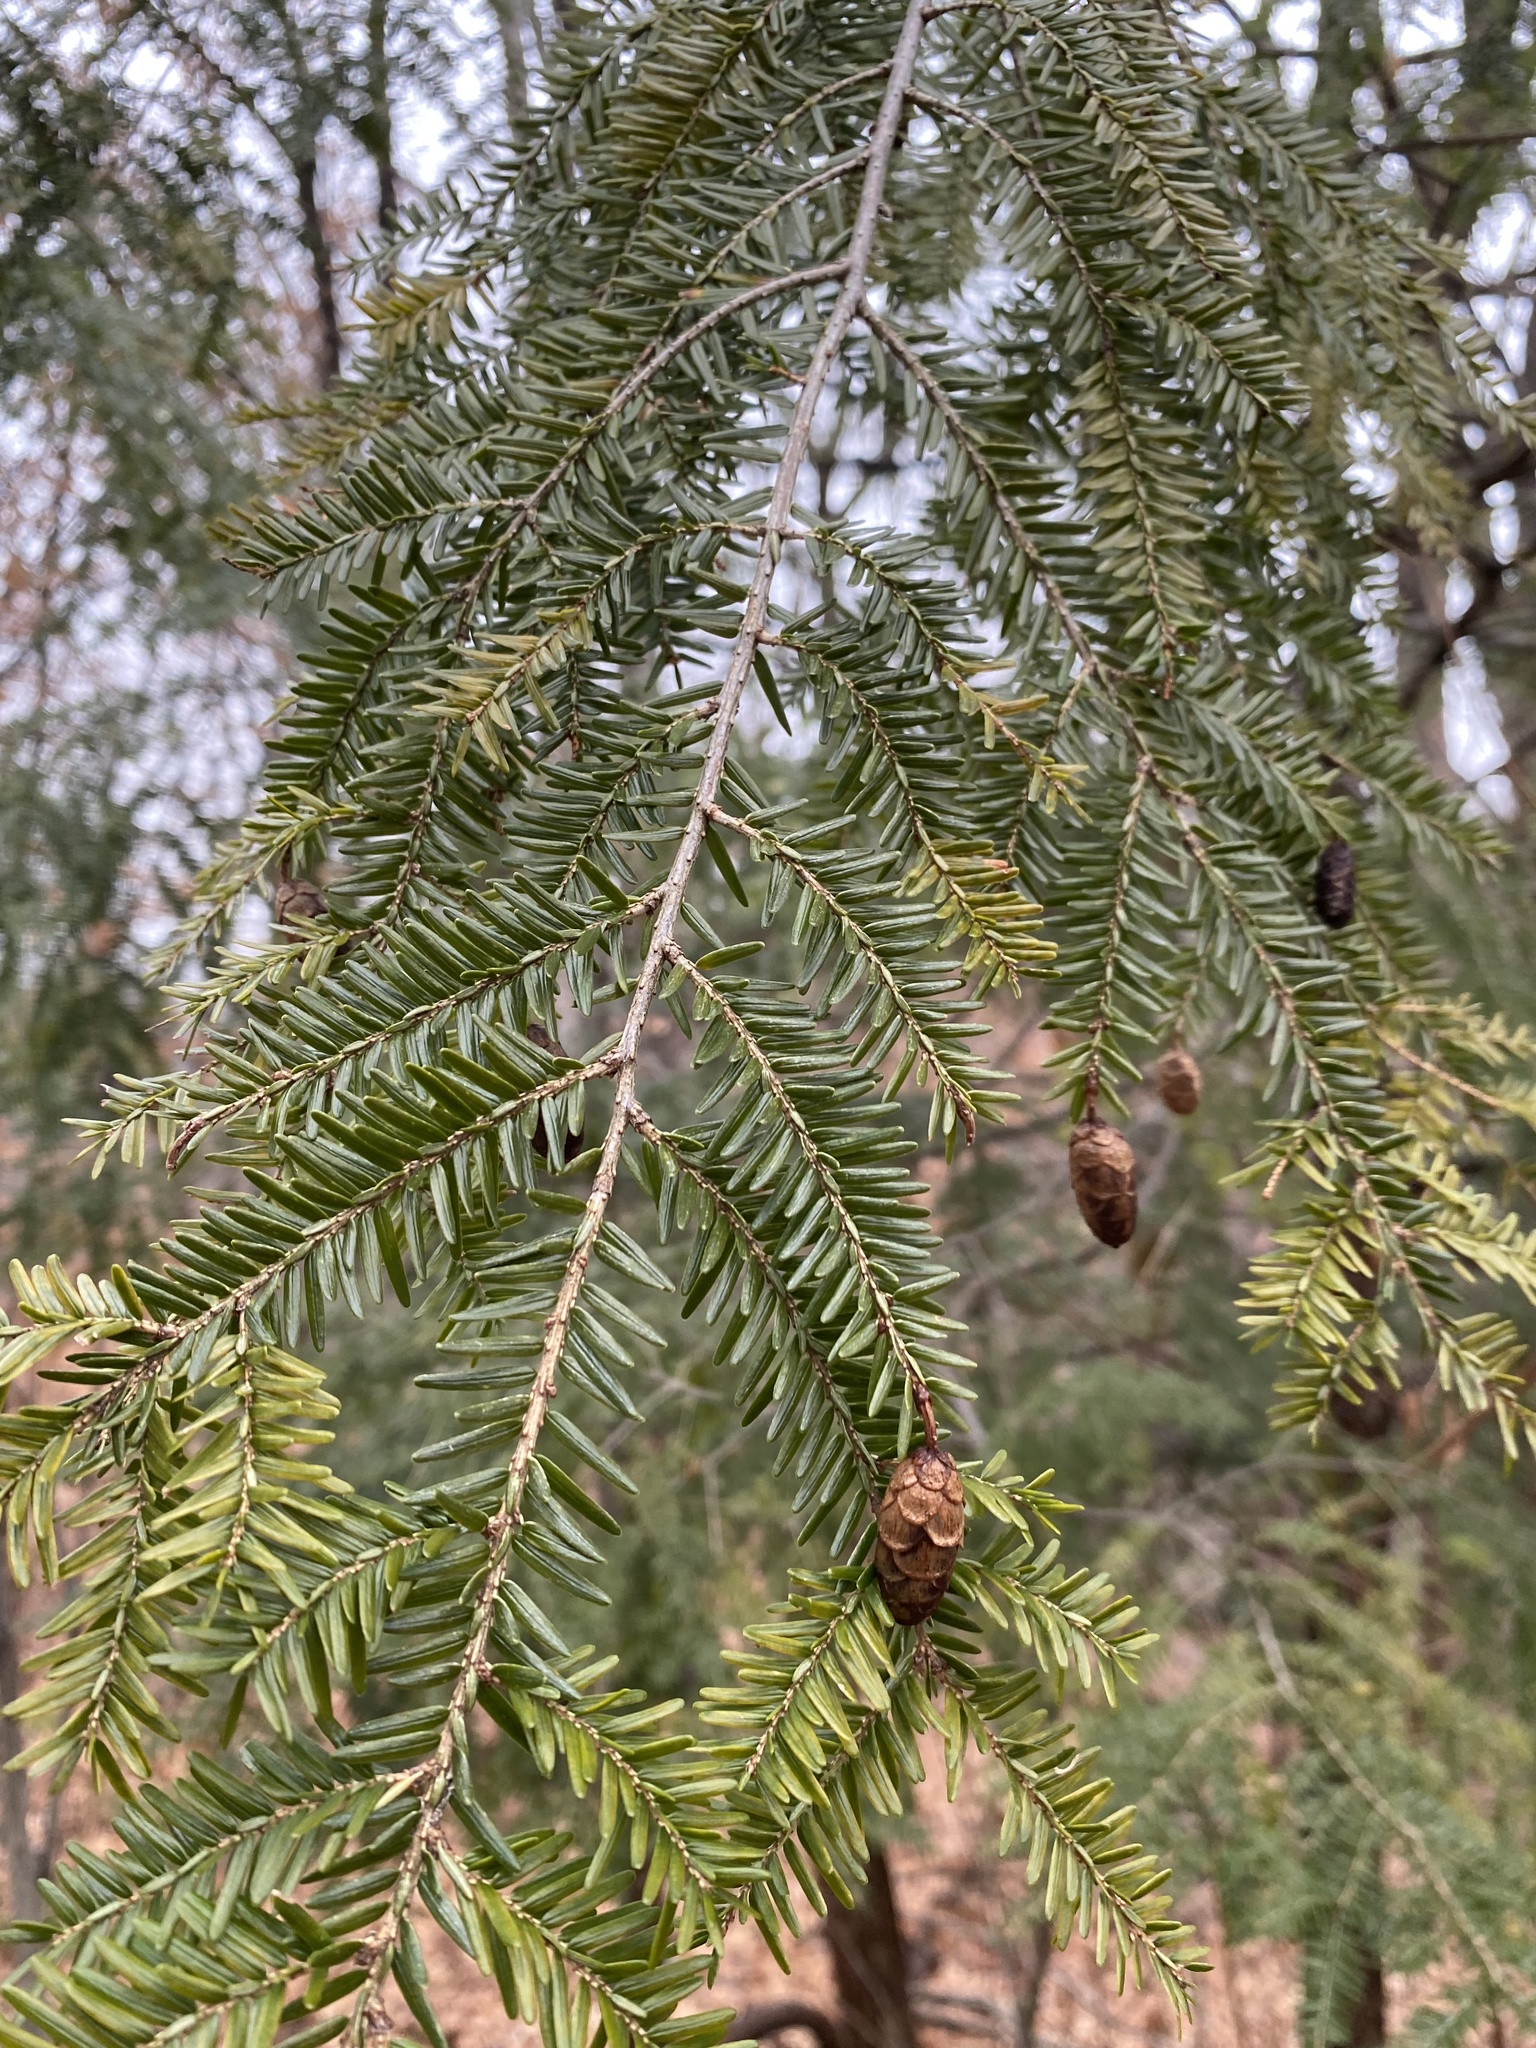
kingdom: Plantae
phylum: Tracheophyta
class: Pinopsida
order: Pinales
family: Pinaceae
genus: Tsuga
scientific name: Tsuga canadensis
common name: Eastern hemlock
